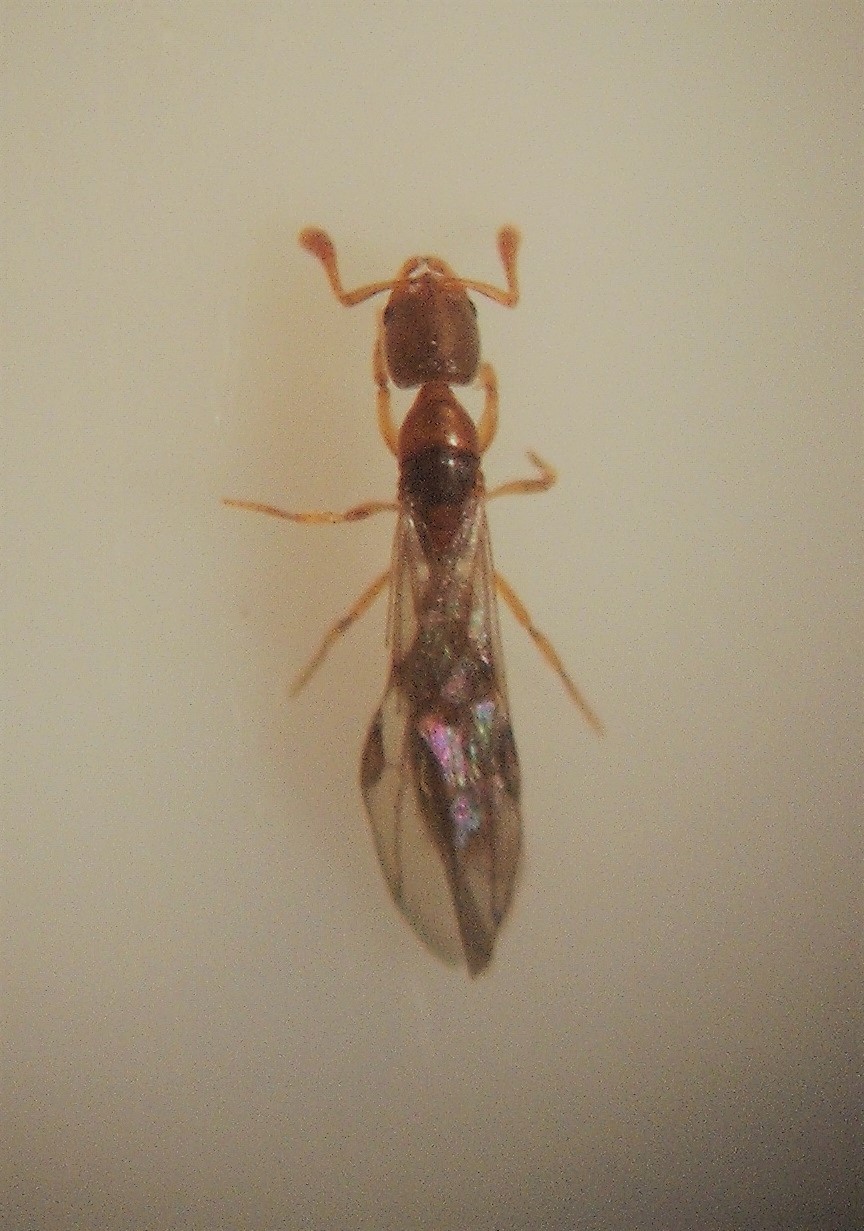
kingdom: Animalia
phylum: Arthropoda
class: Insecta
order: Hymenoptera
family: Formicidae
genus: Ponera
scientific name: Ponera leae
